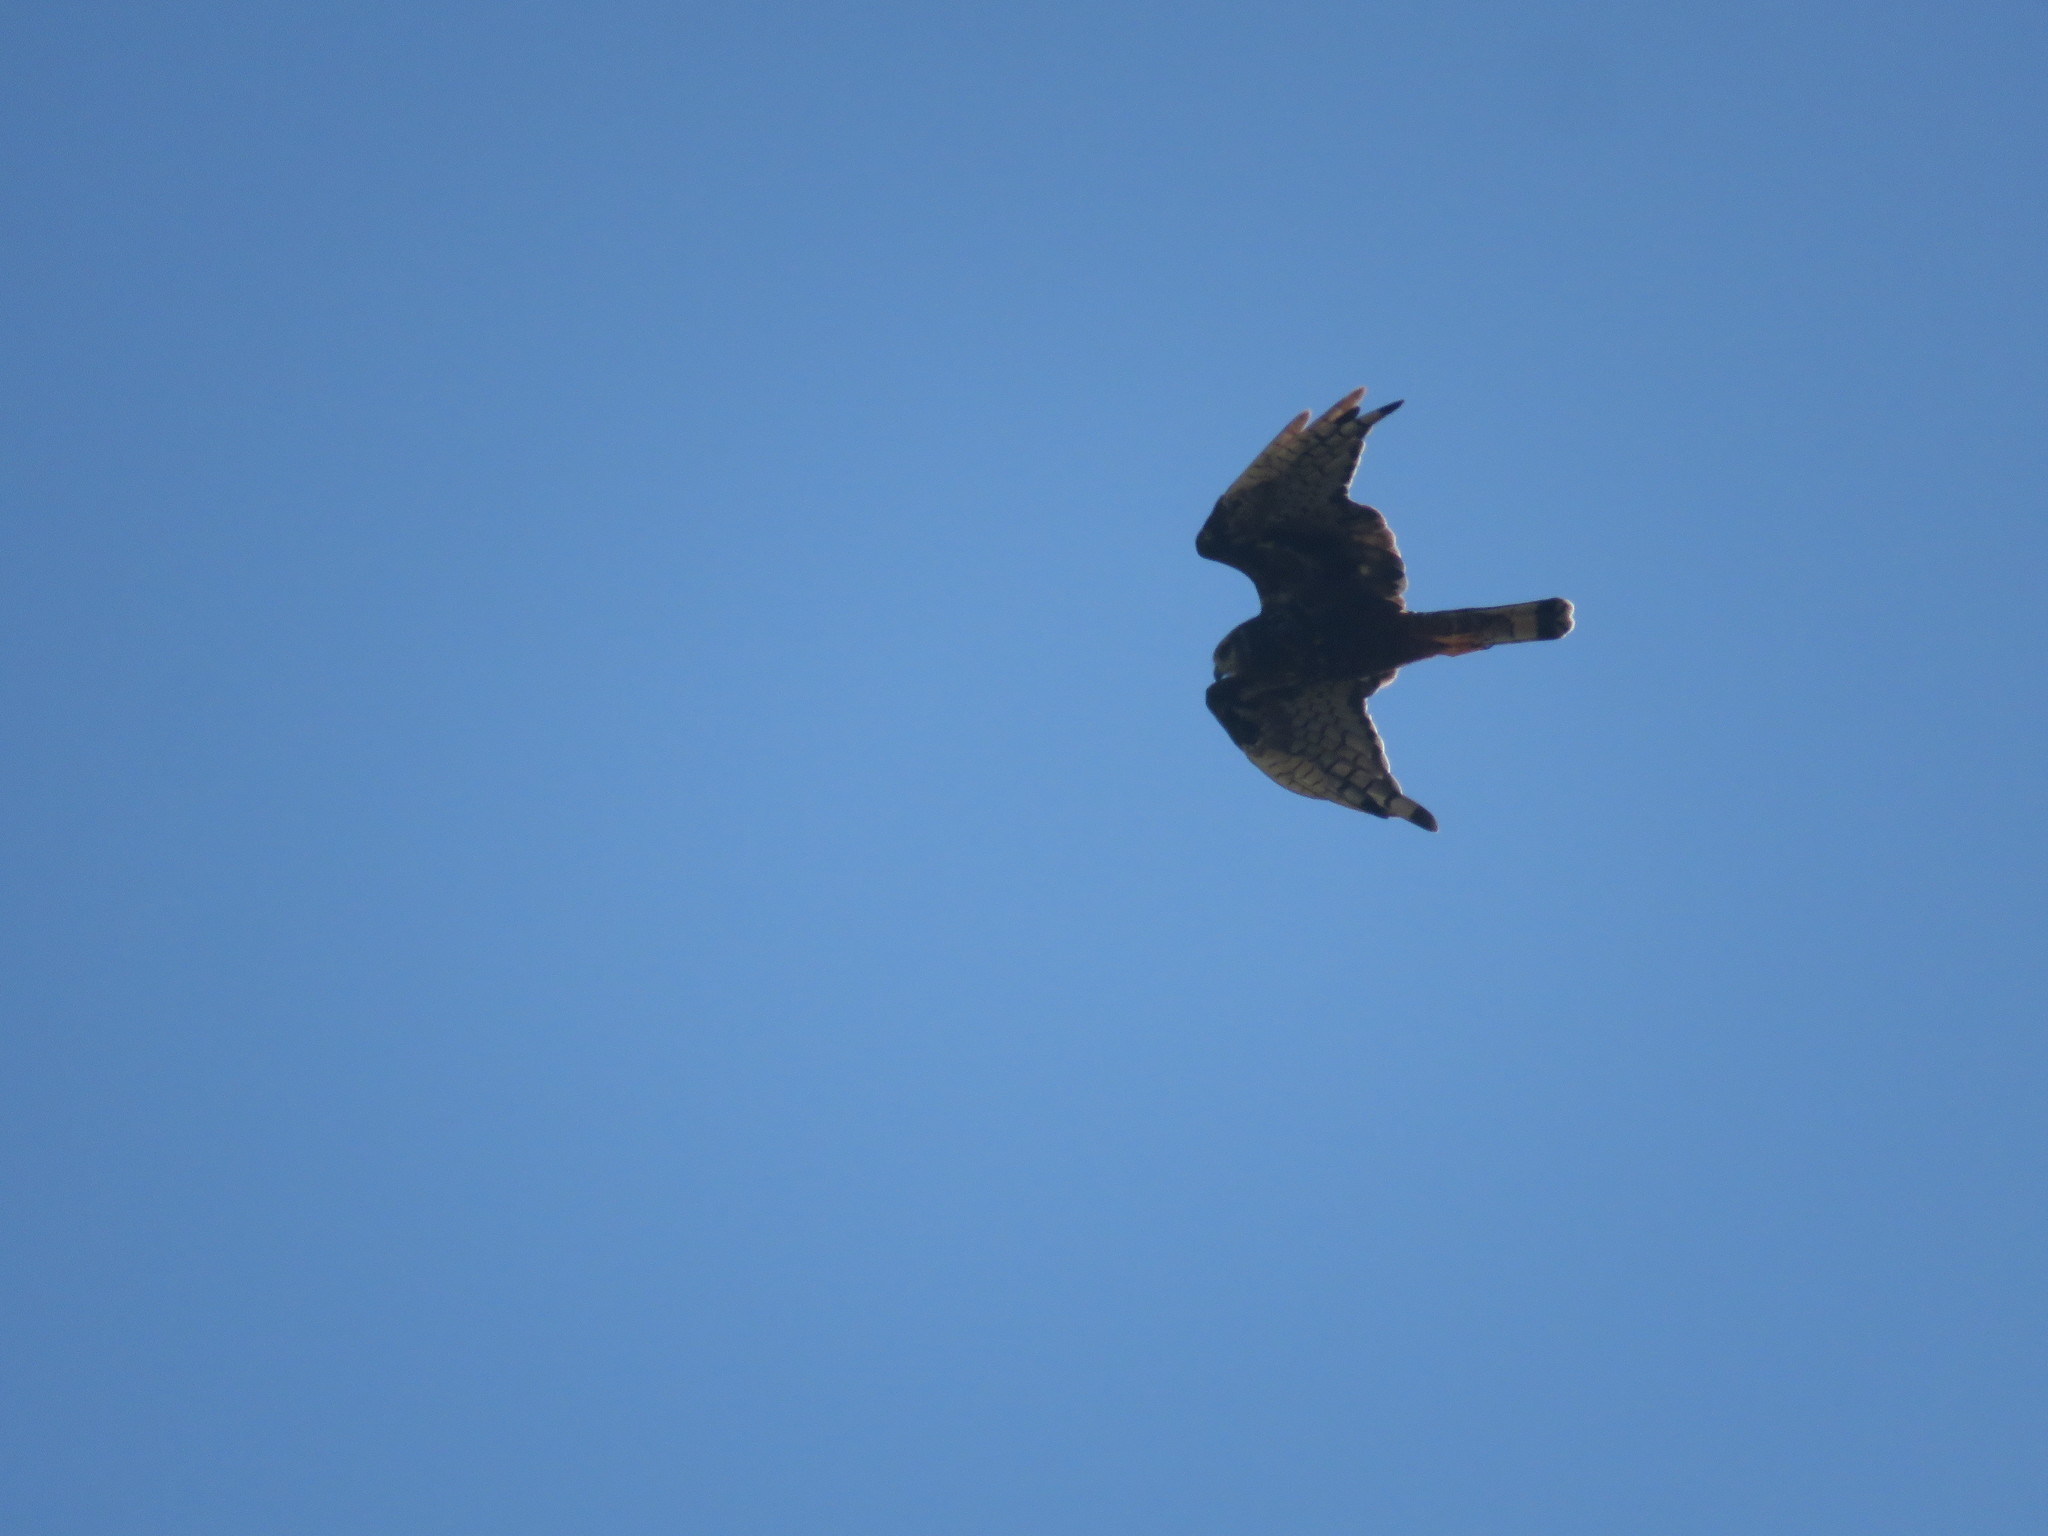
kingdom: Animalia
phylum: Chordata
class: Aves
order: Accipitriformes
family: Accipitridae
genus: Circus
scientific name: Circus buffoni
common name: Long-winged harrier
